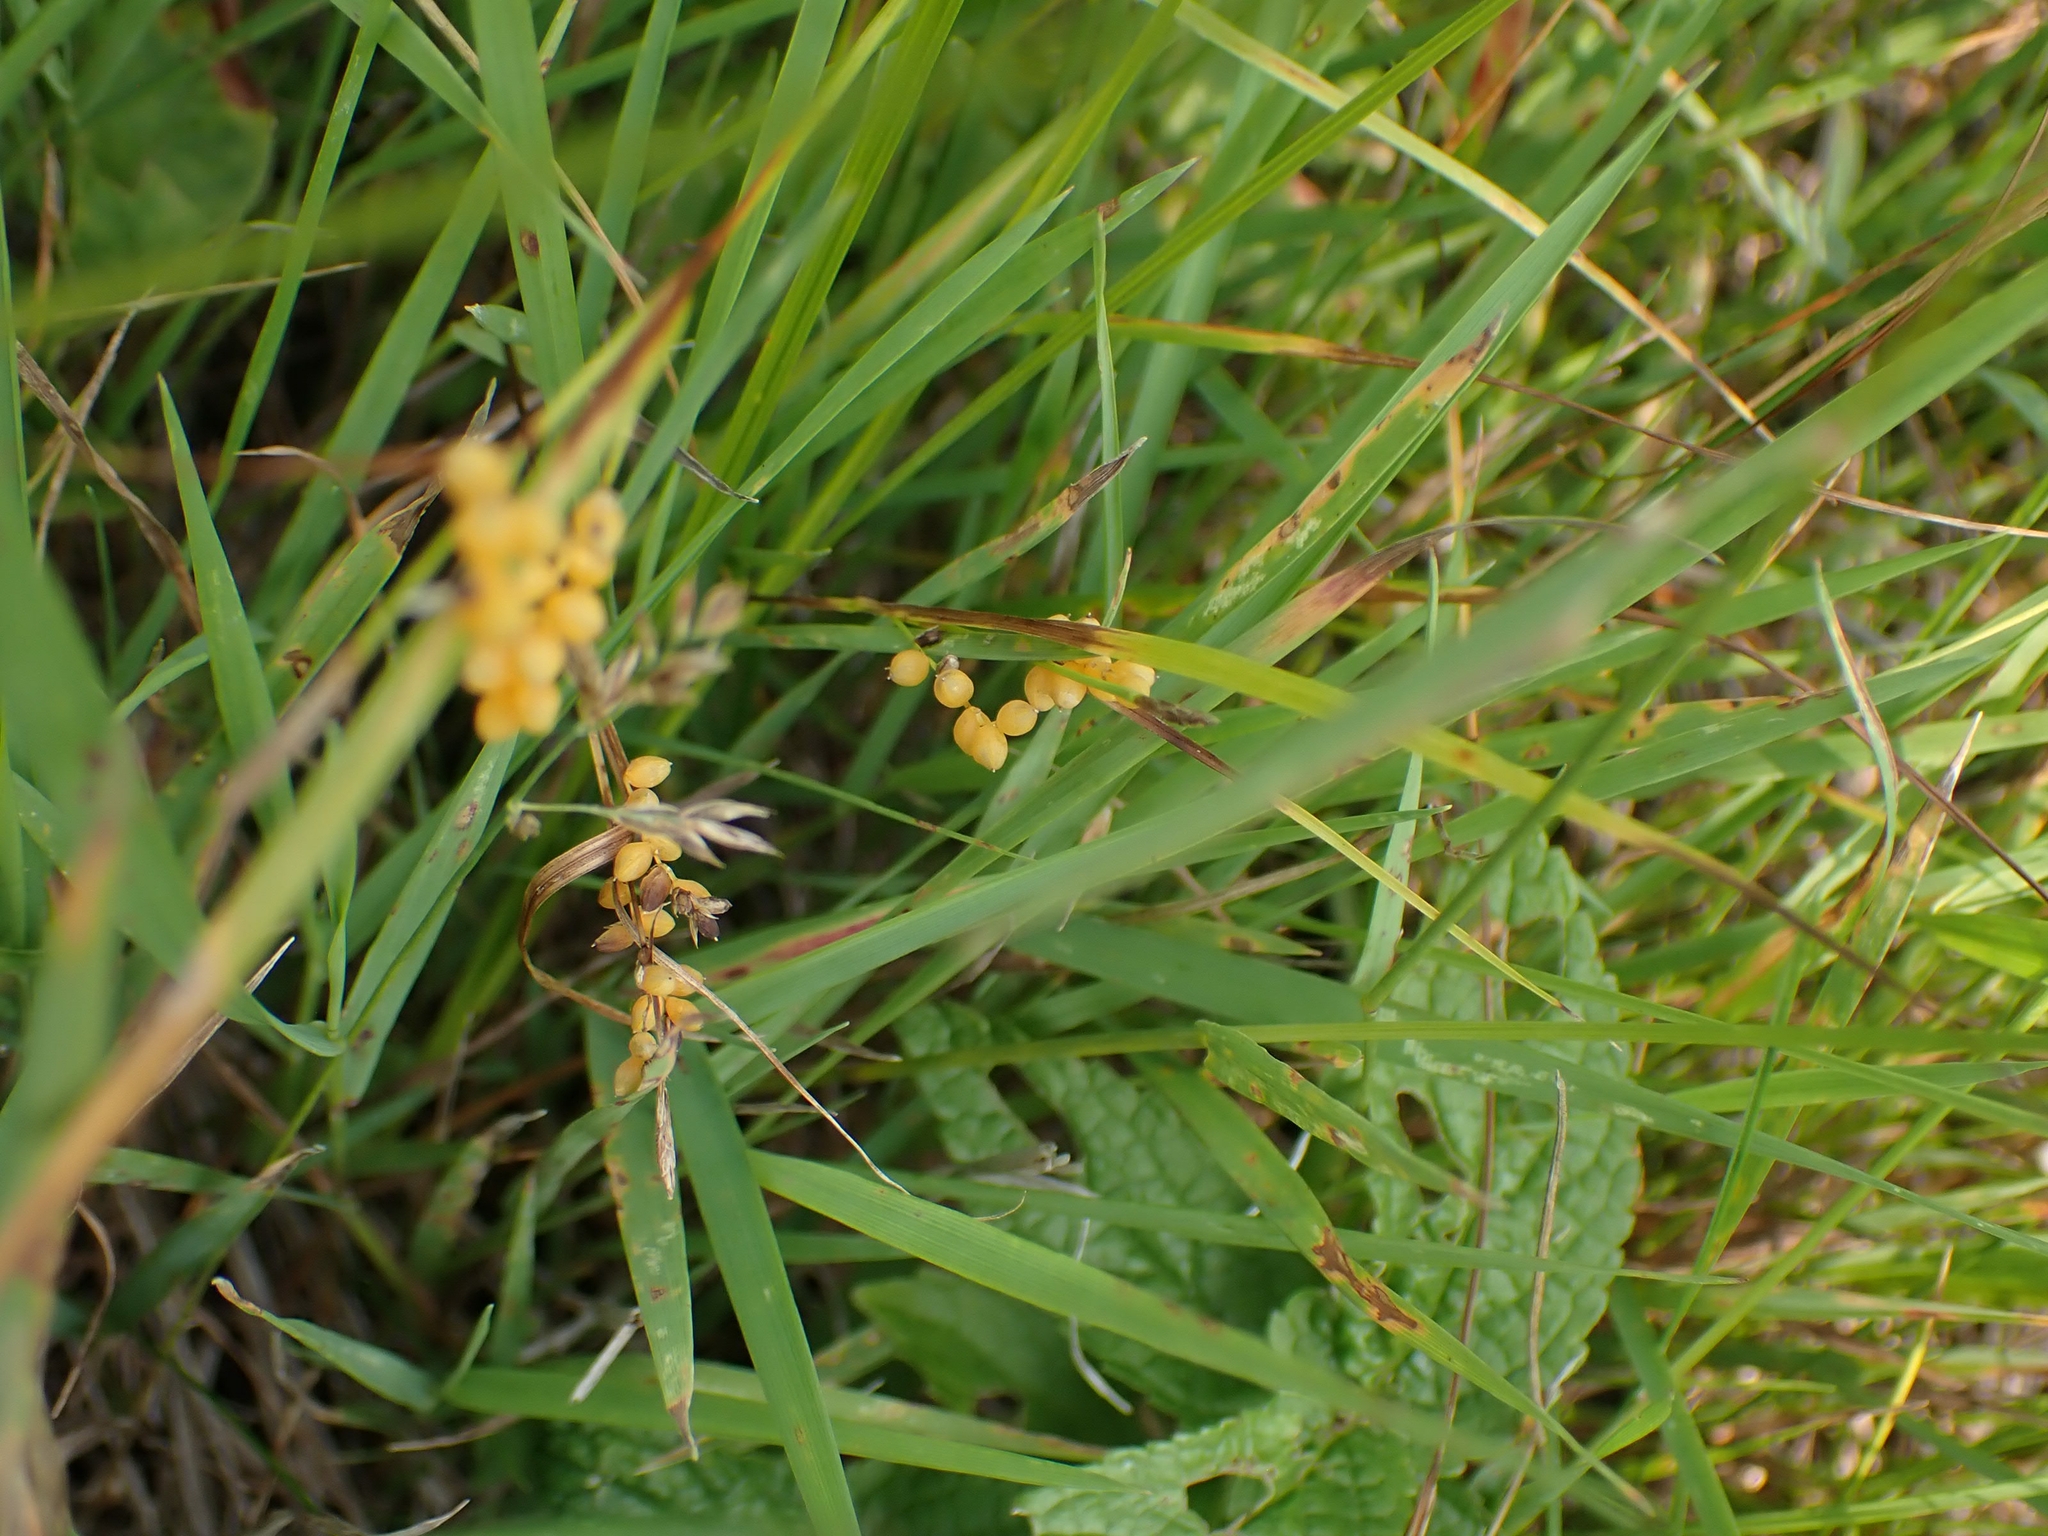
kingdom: Plantae
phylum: Tracheophyta
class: Liliopsida
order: Poales
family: Cyperaceae
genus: Carex
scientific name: Carex aurea
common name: Golden sedge
